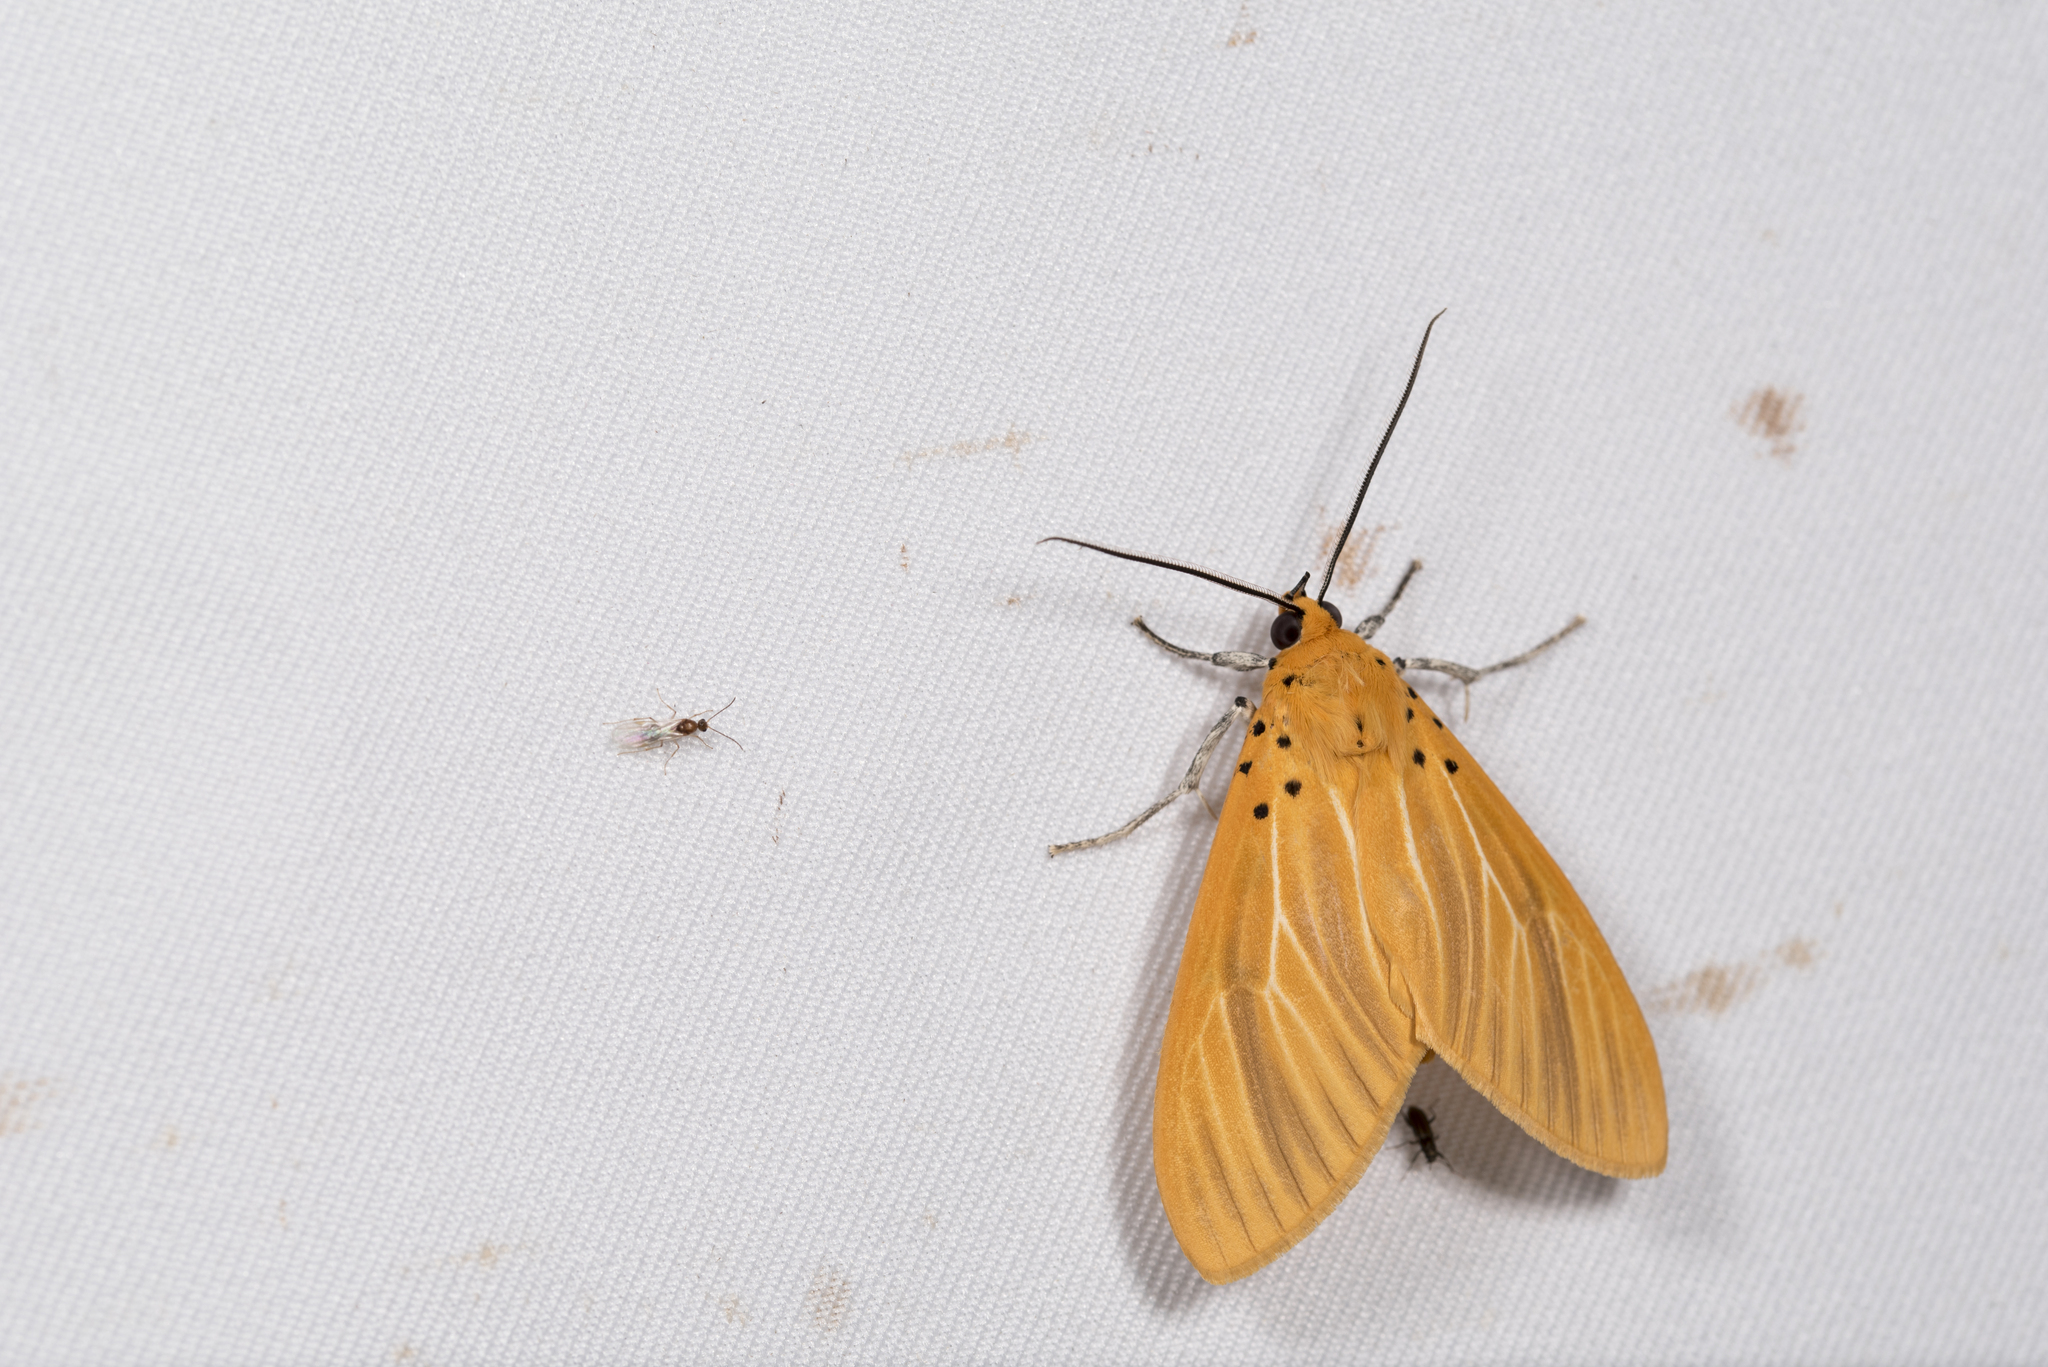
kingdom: Animalia
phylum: Arthropoda
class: Insecta
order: Lepidoptera
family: Erebidae
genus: Asota
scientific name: Asota egens
